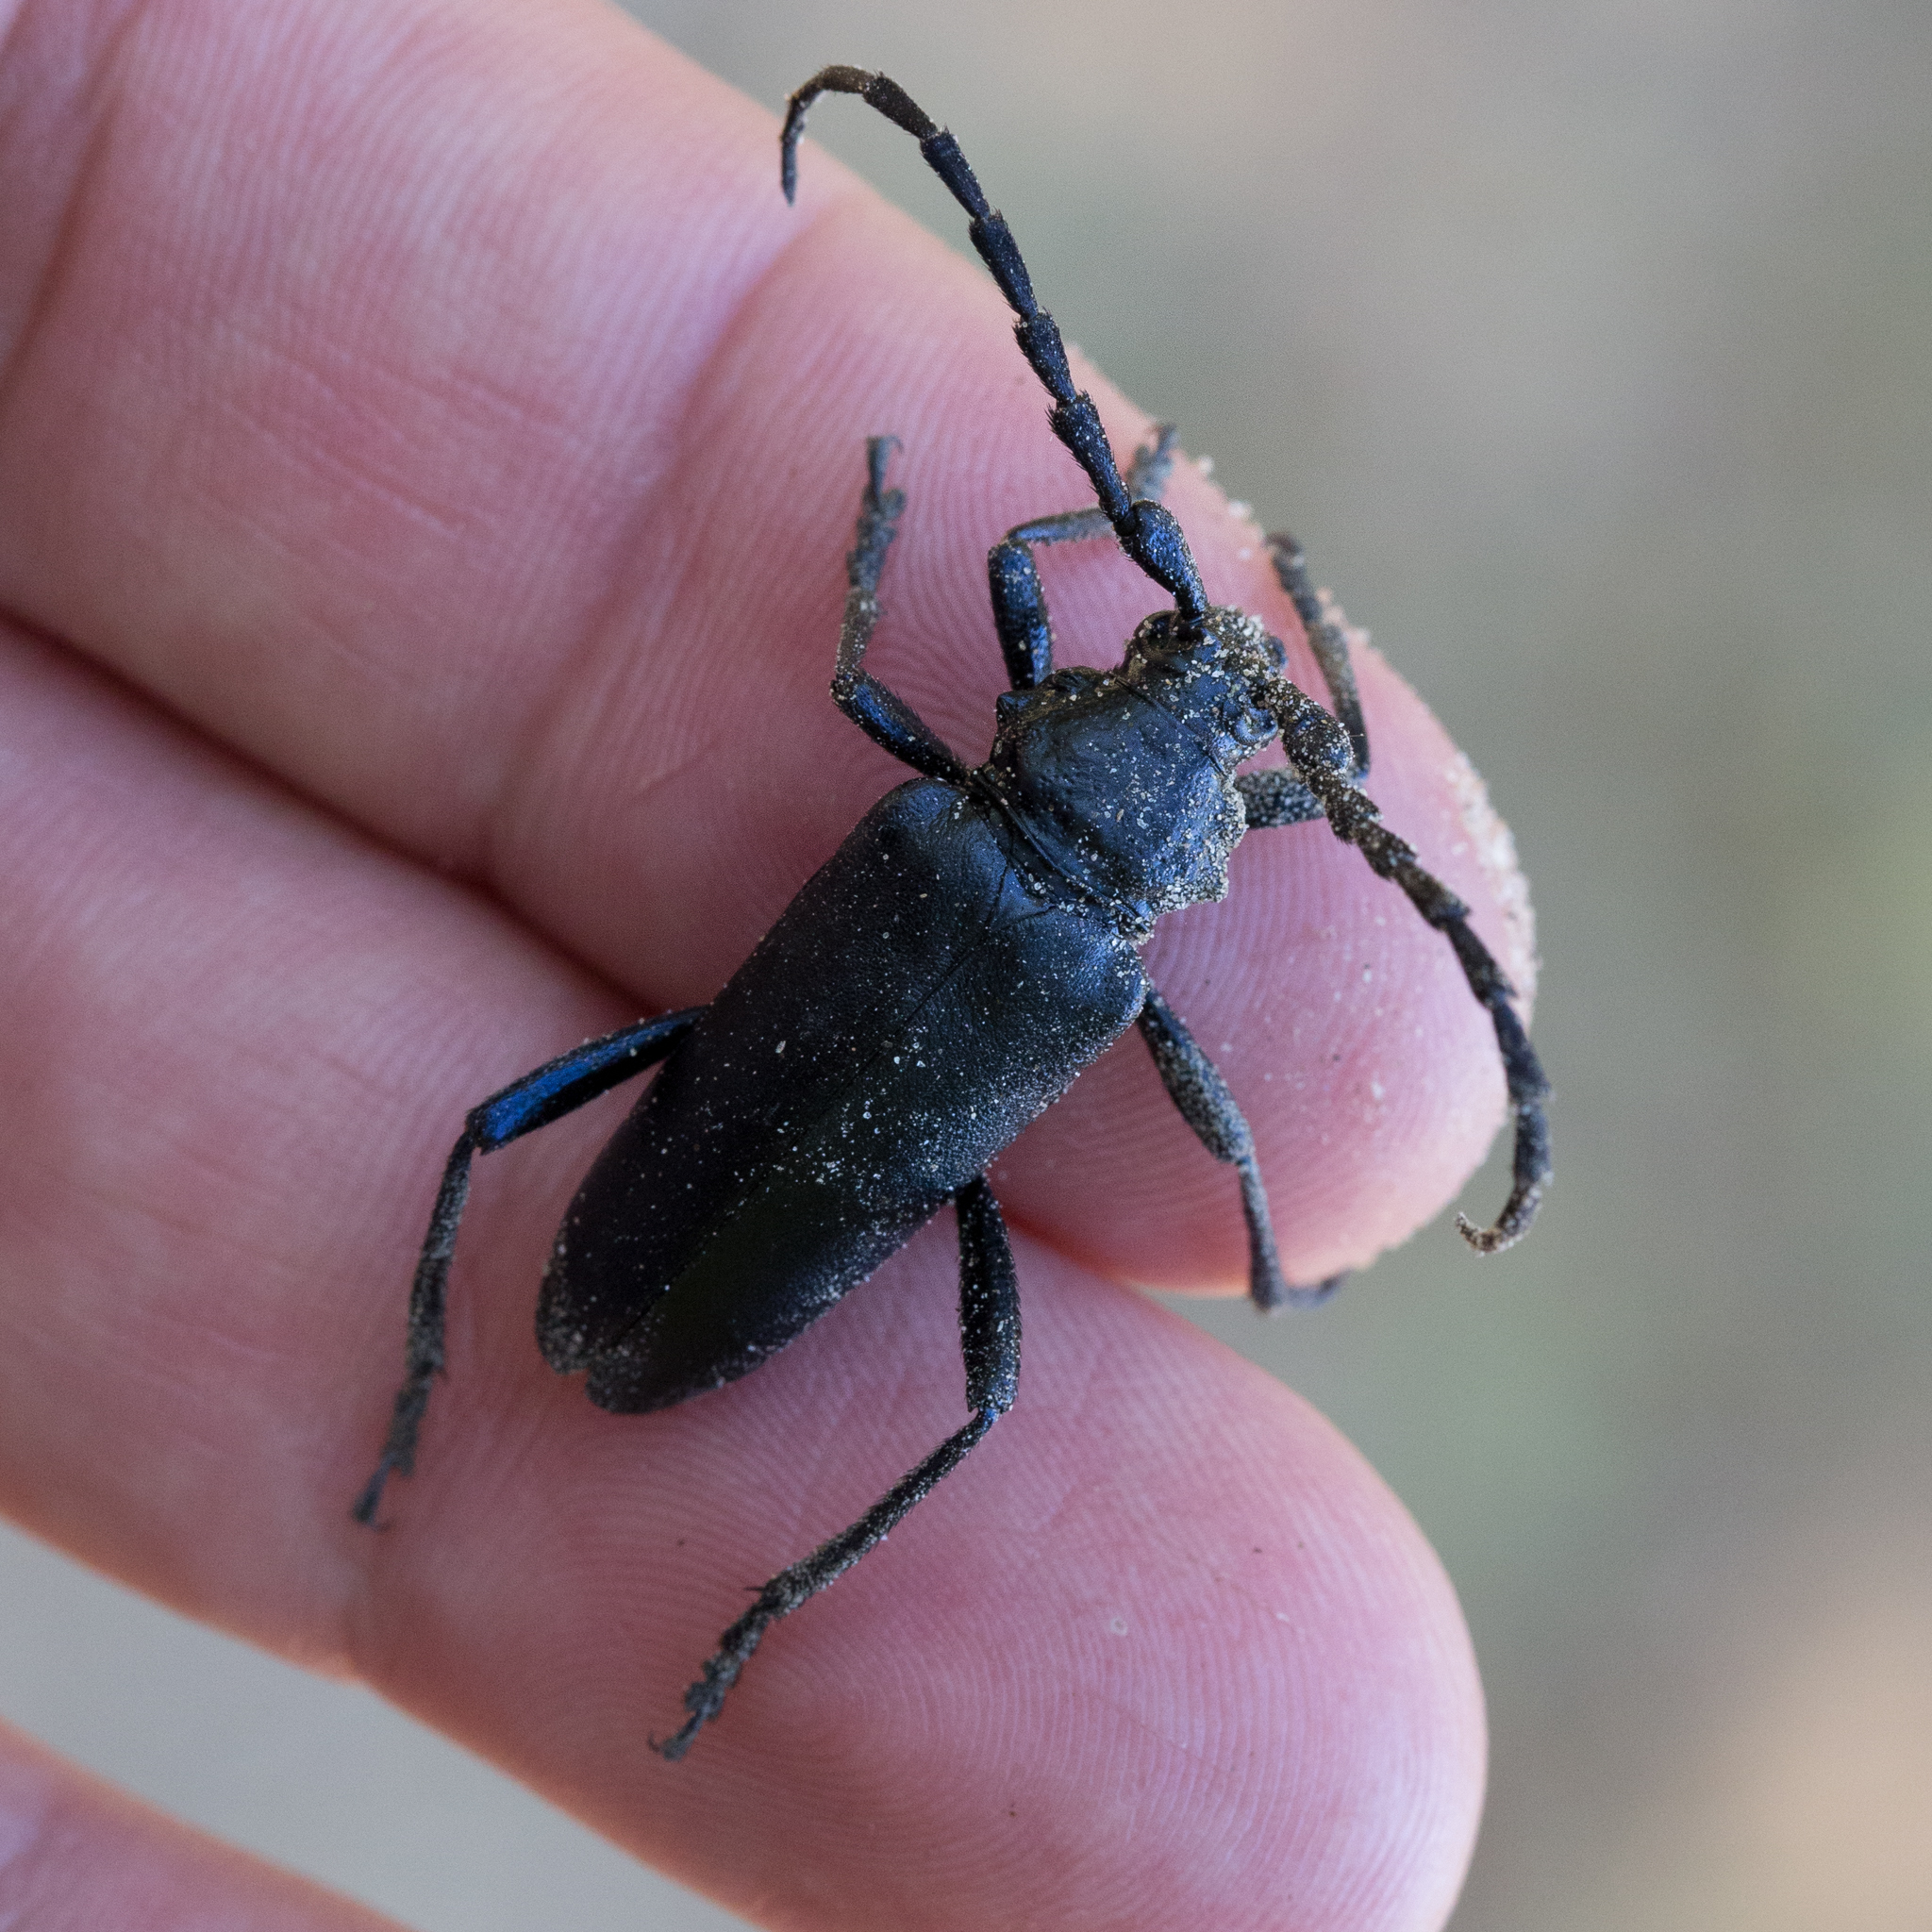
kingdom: Animalia
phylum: Arthropoda
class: Insecta
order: Coleoptera
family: Cerambycidae
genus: Stenaspis
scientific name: Stenaspis solitaria
